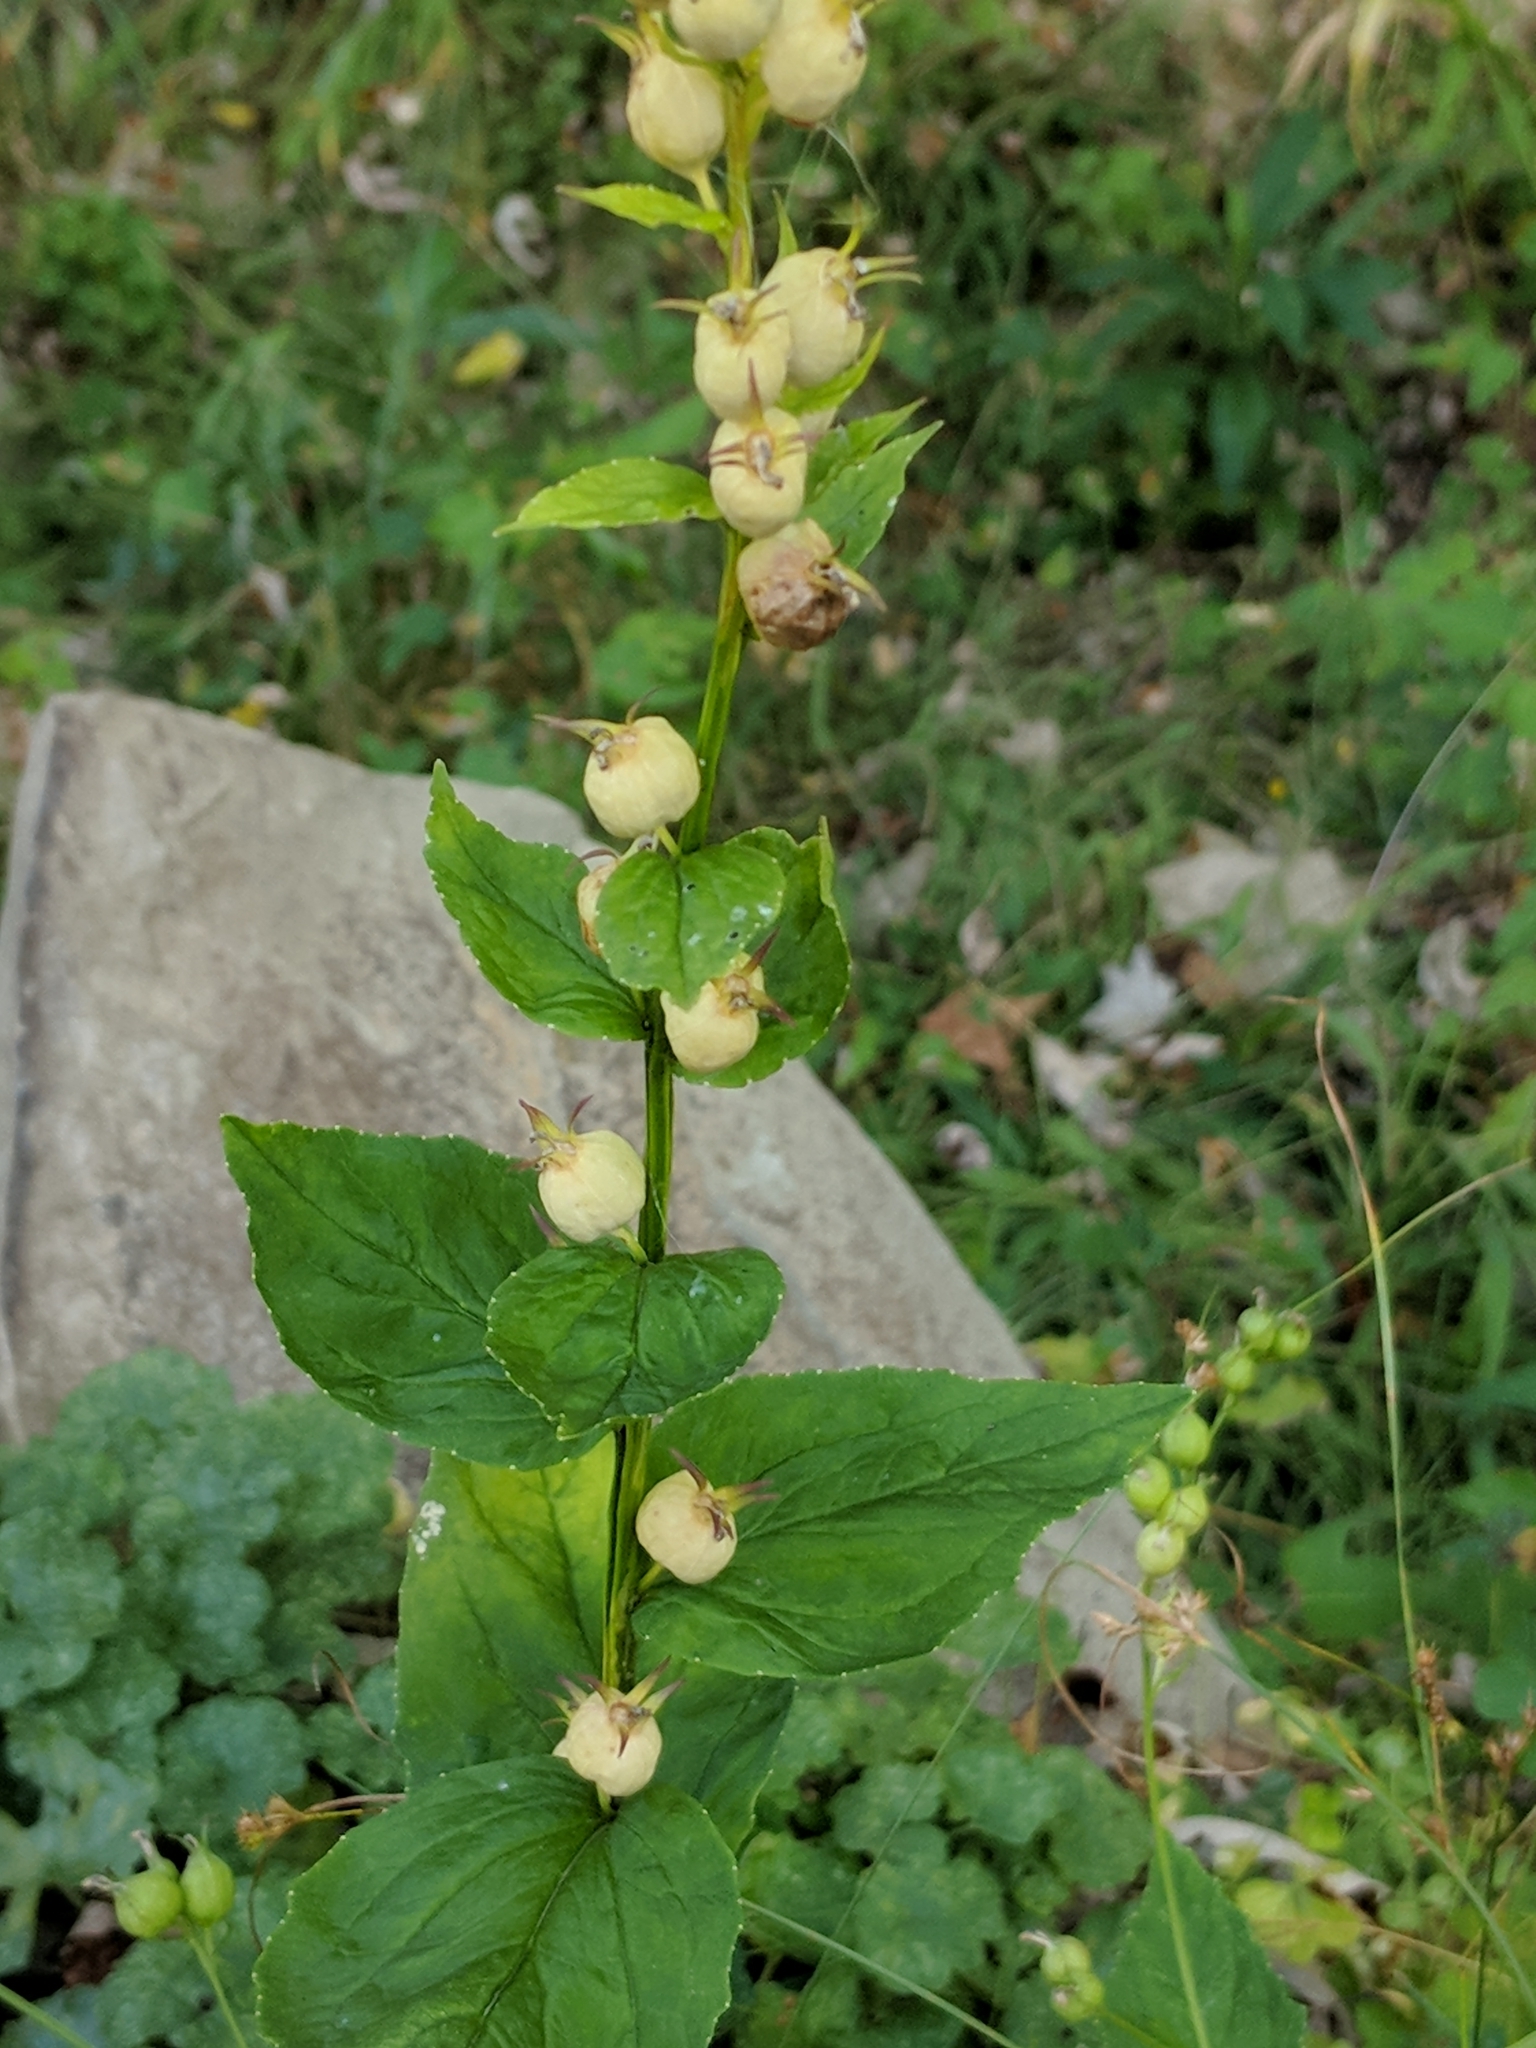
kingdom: Plantae
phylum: Tracheophyta
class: Magnoliopsida
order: Asterales
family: Campanulaceae
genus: Lobelia
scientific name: Lobelia inflata
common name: Indian tobacco
